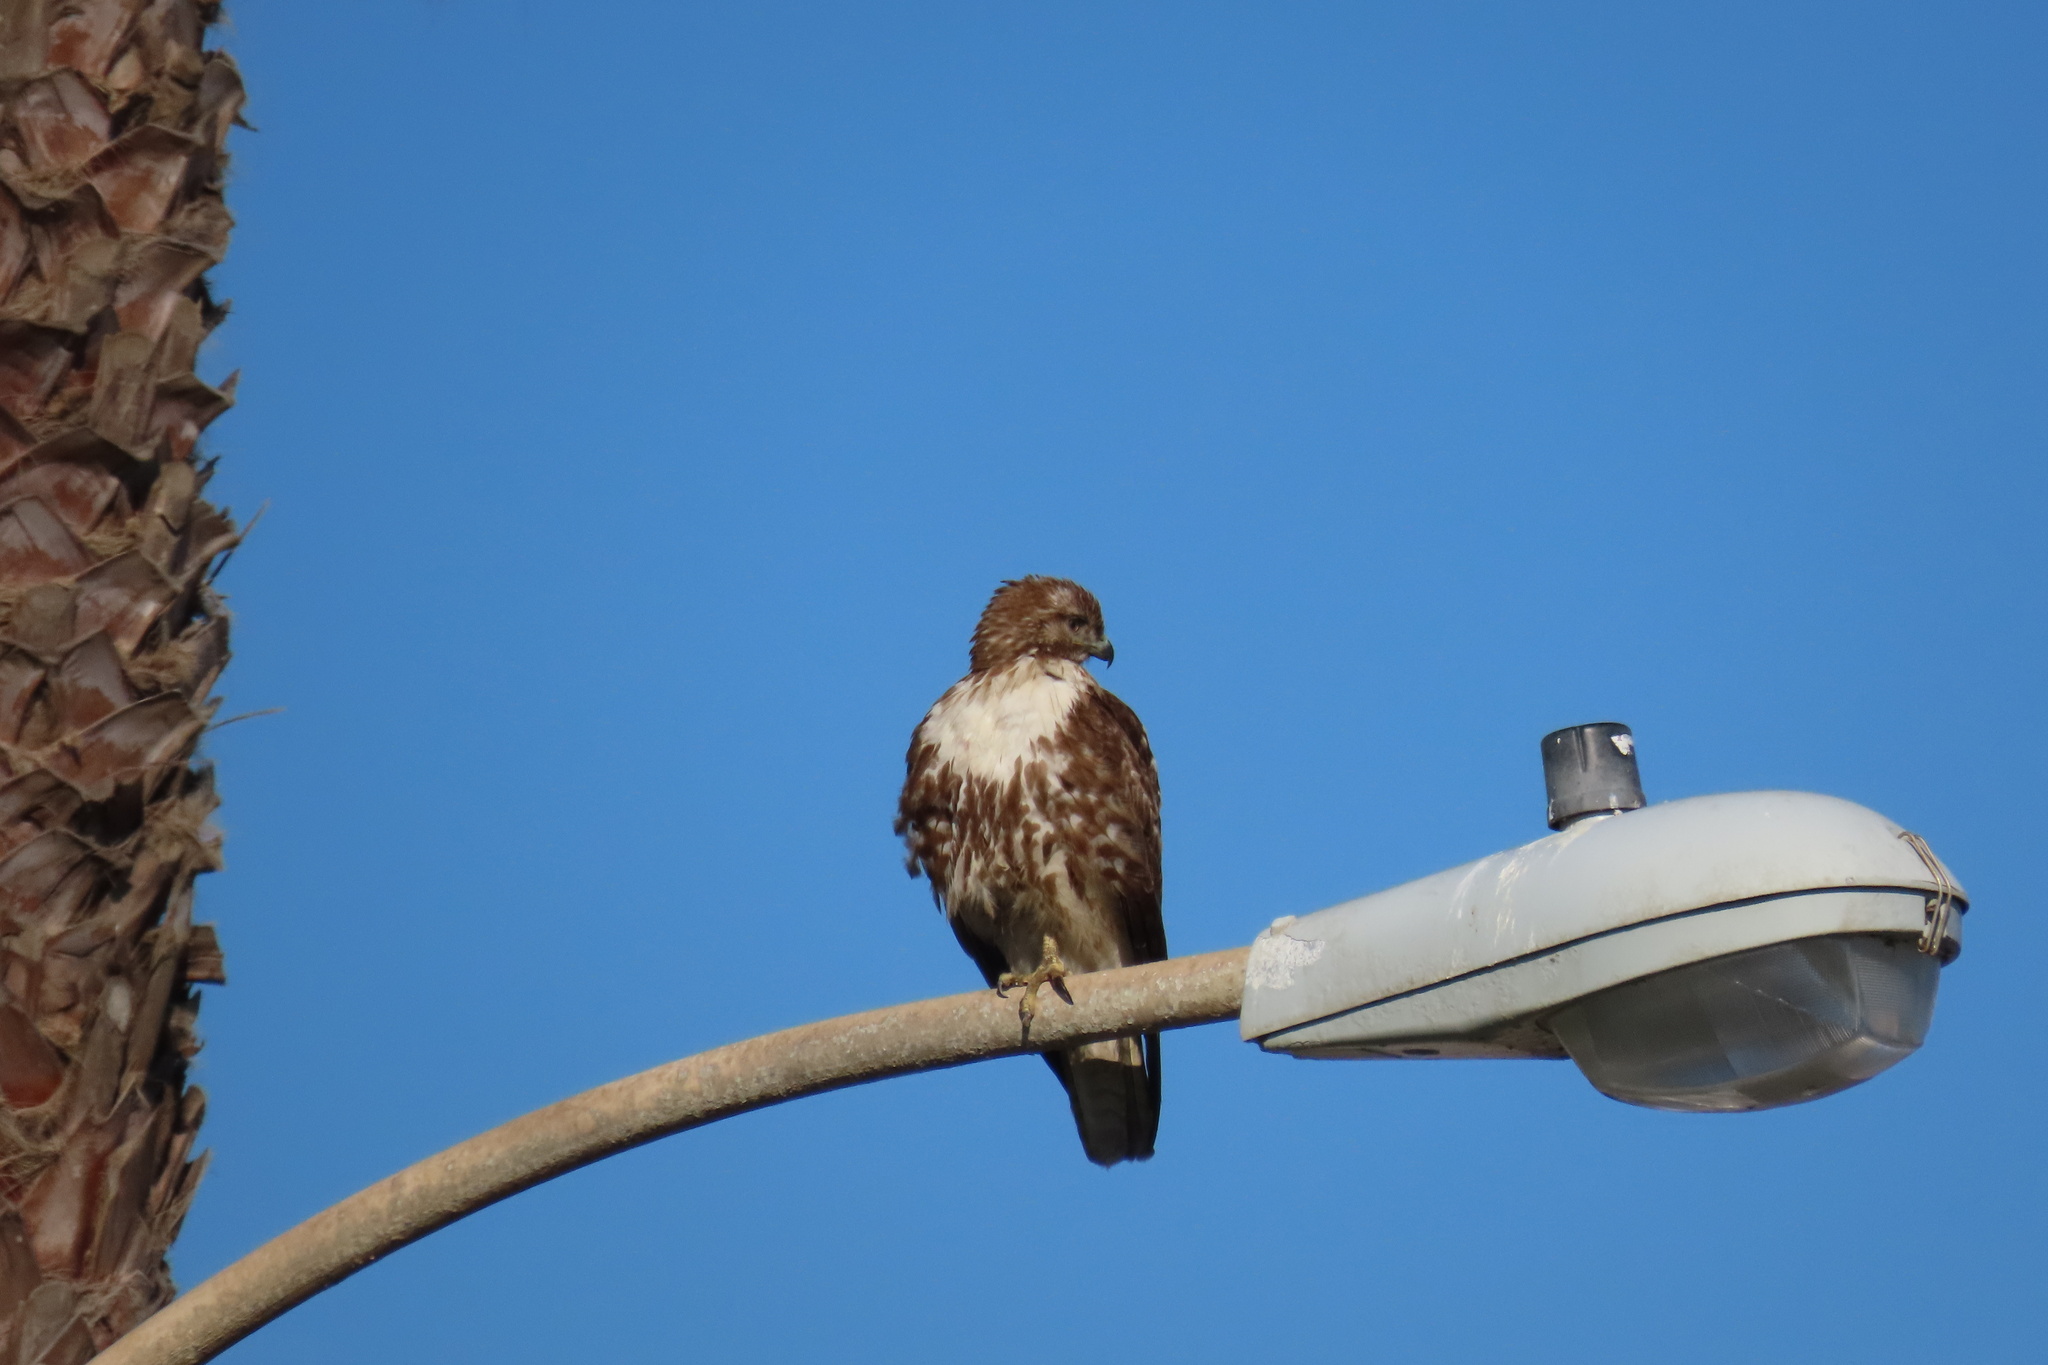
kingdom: Animalia
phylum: Chordata
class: Aves
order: Accipitriformes
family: Accipitridae
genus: Buteo
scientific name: Buteo jamaicensis
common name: Red-tailed hawk
